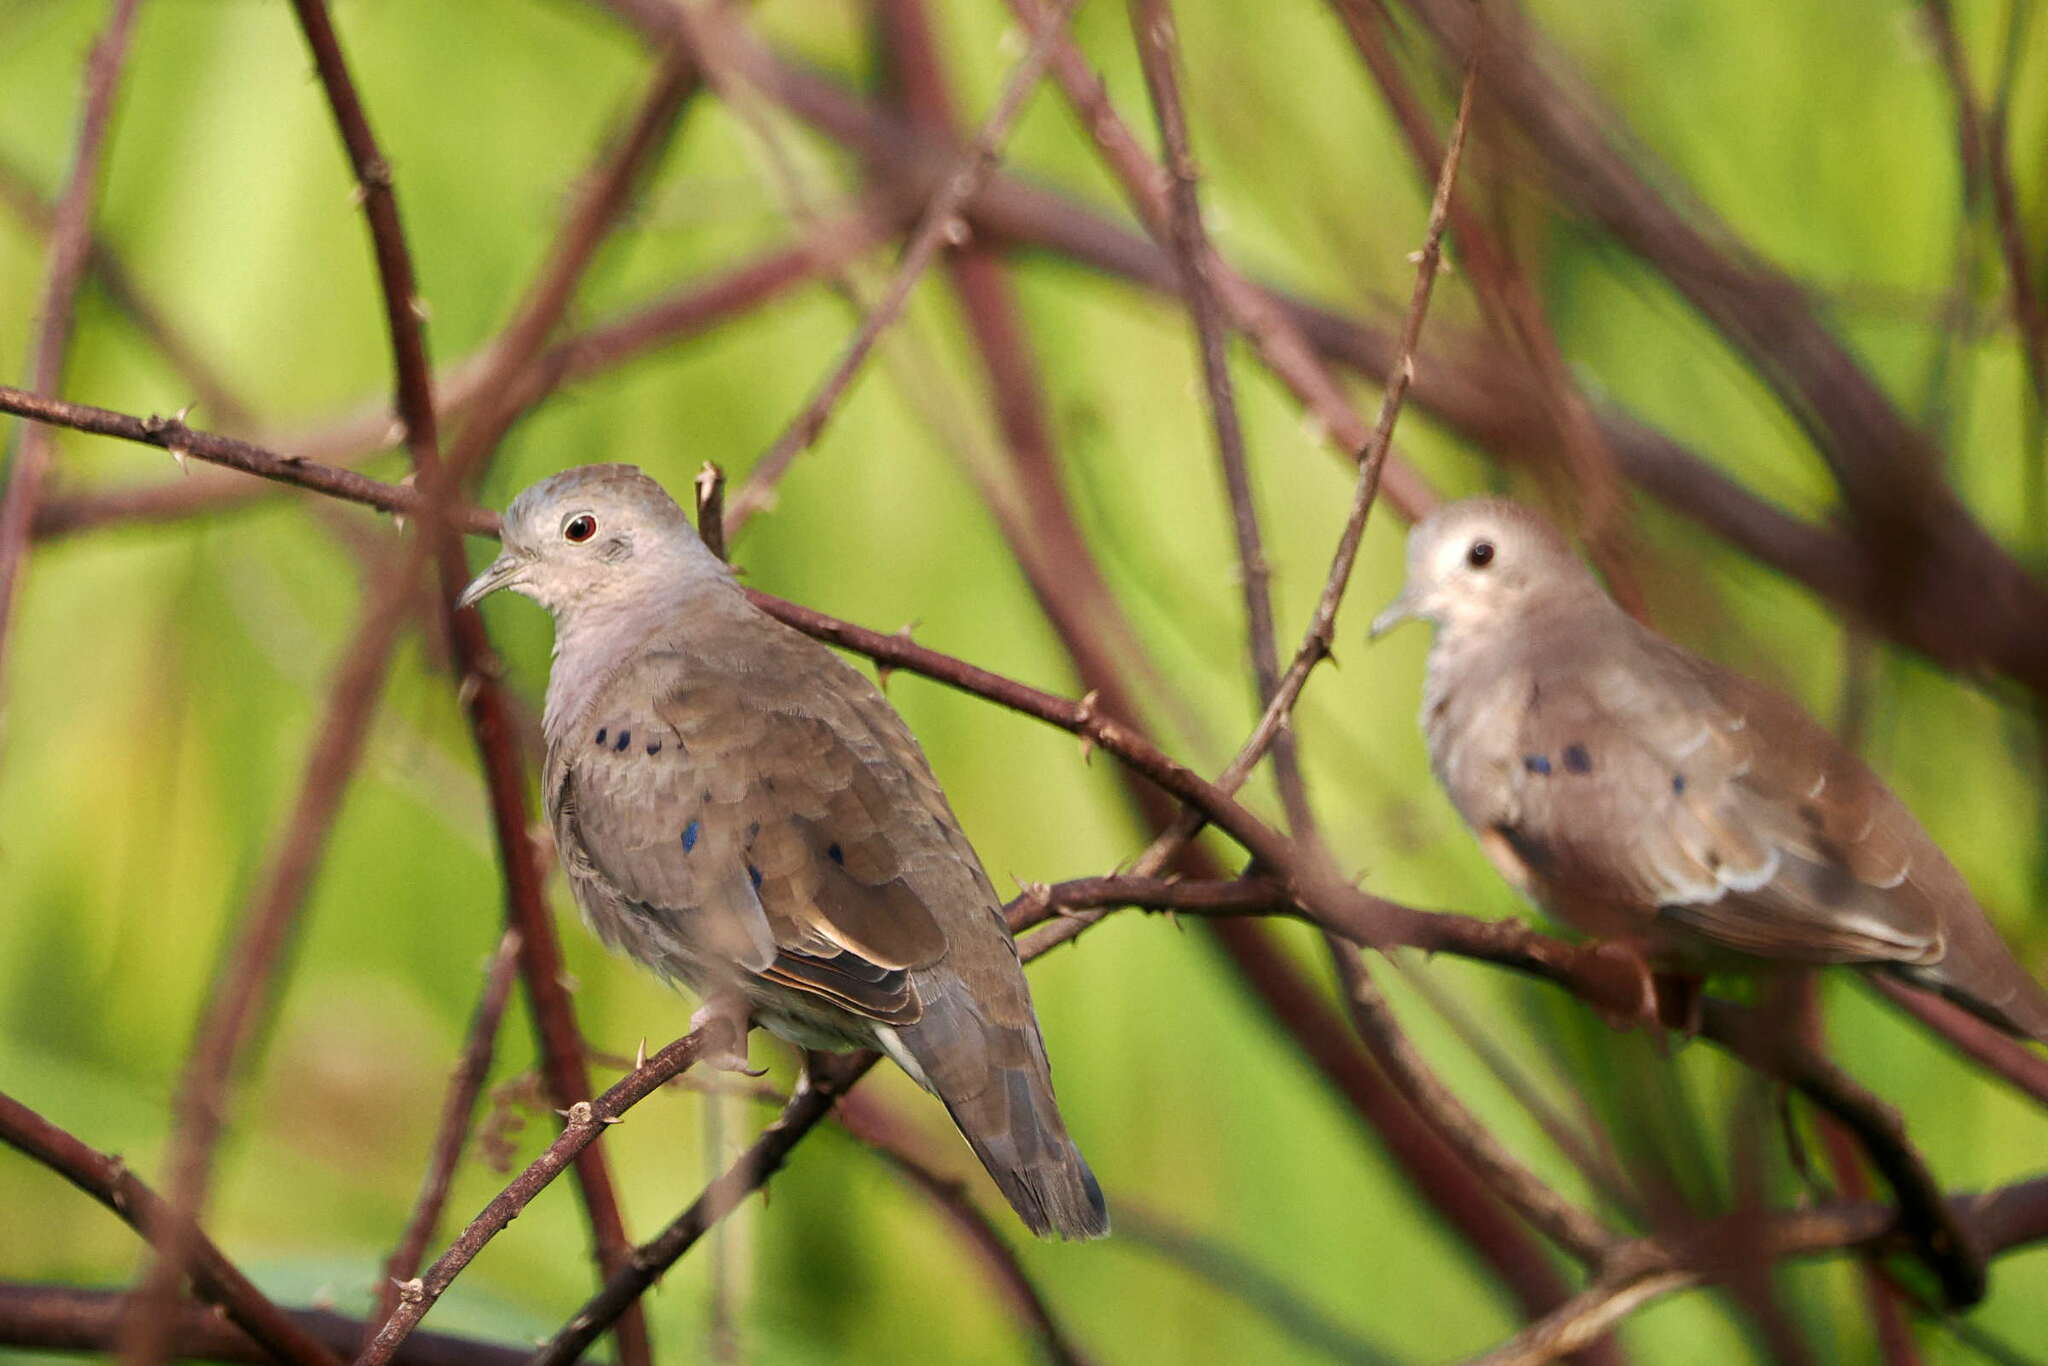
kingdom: Animalia
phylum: Chordata
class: Aves
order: Columbiformes
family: Columbidae
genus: Columbina
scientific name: Columbina minuta
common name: Plain-breasted ground dove
